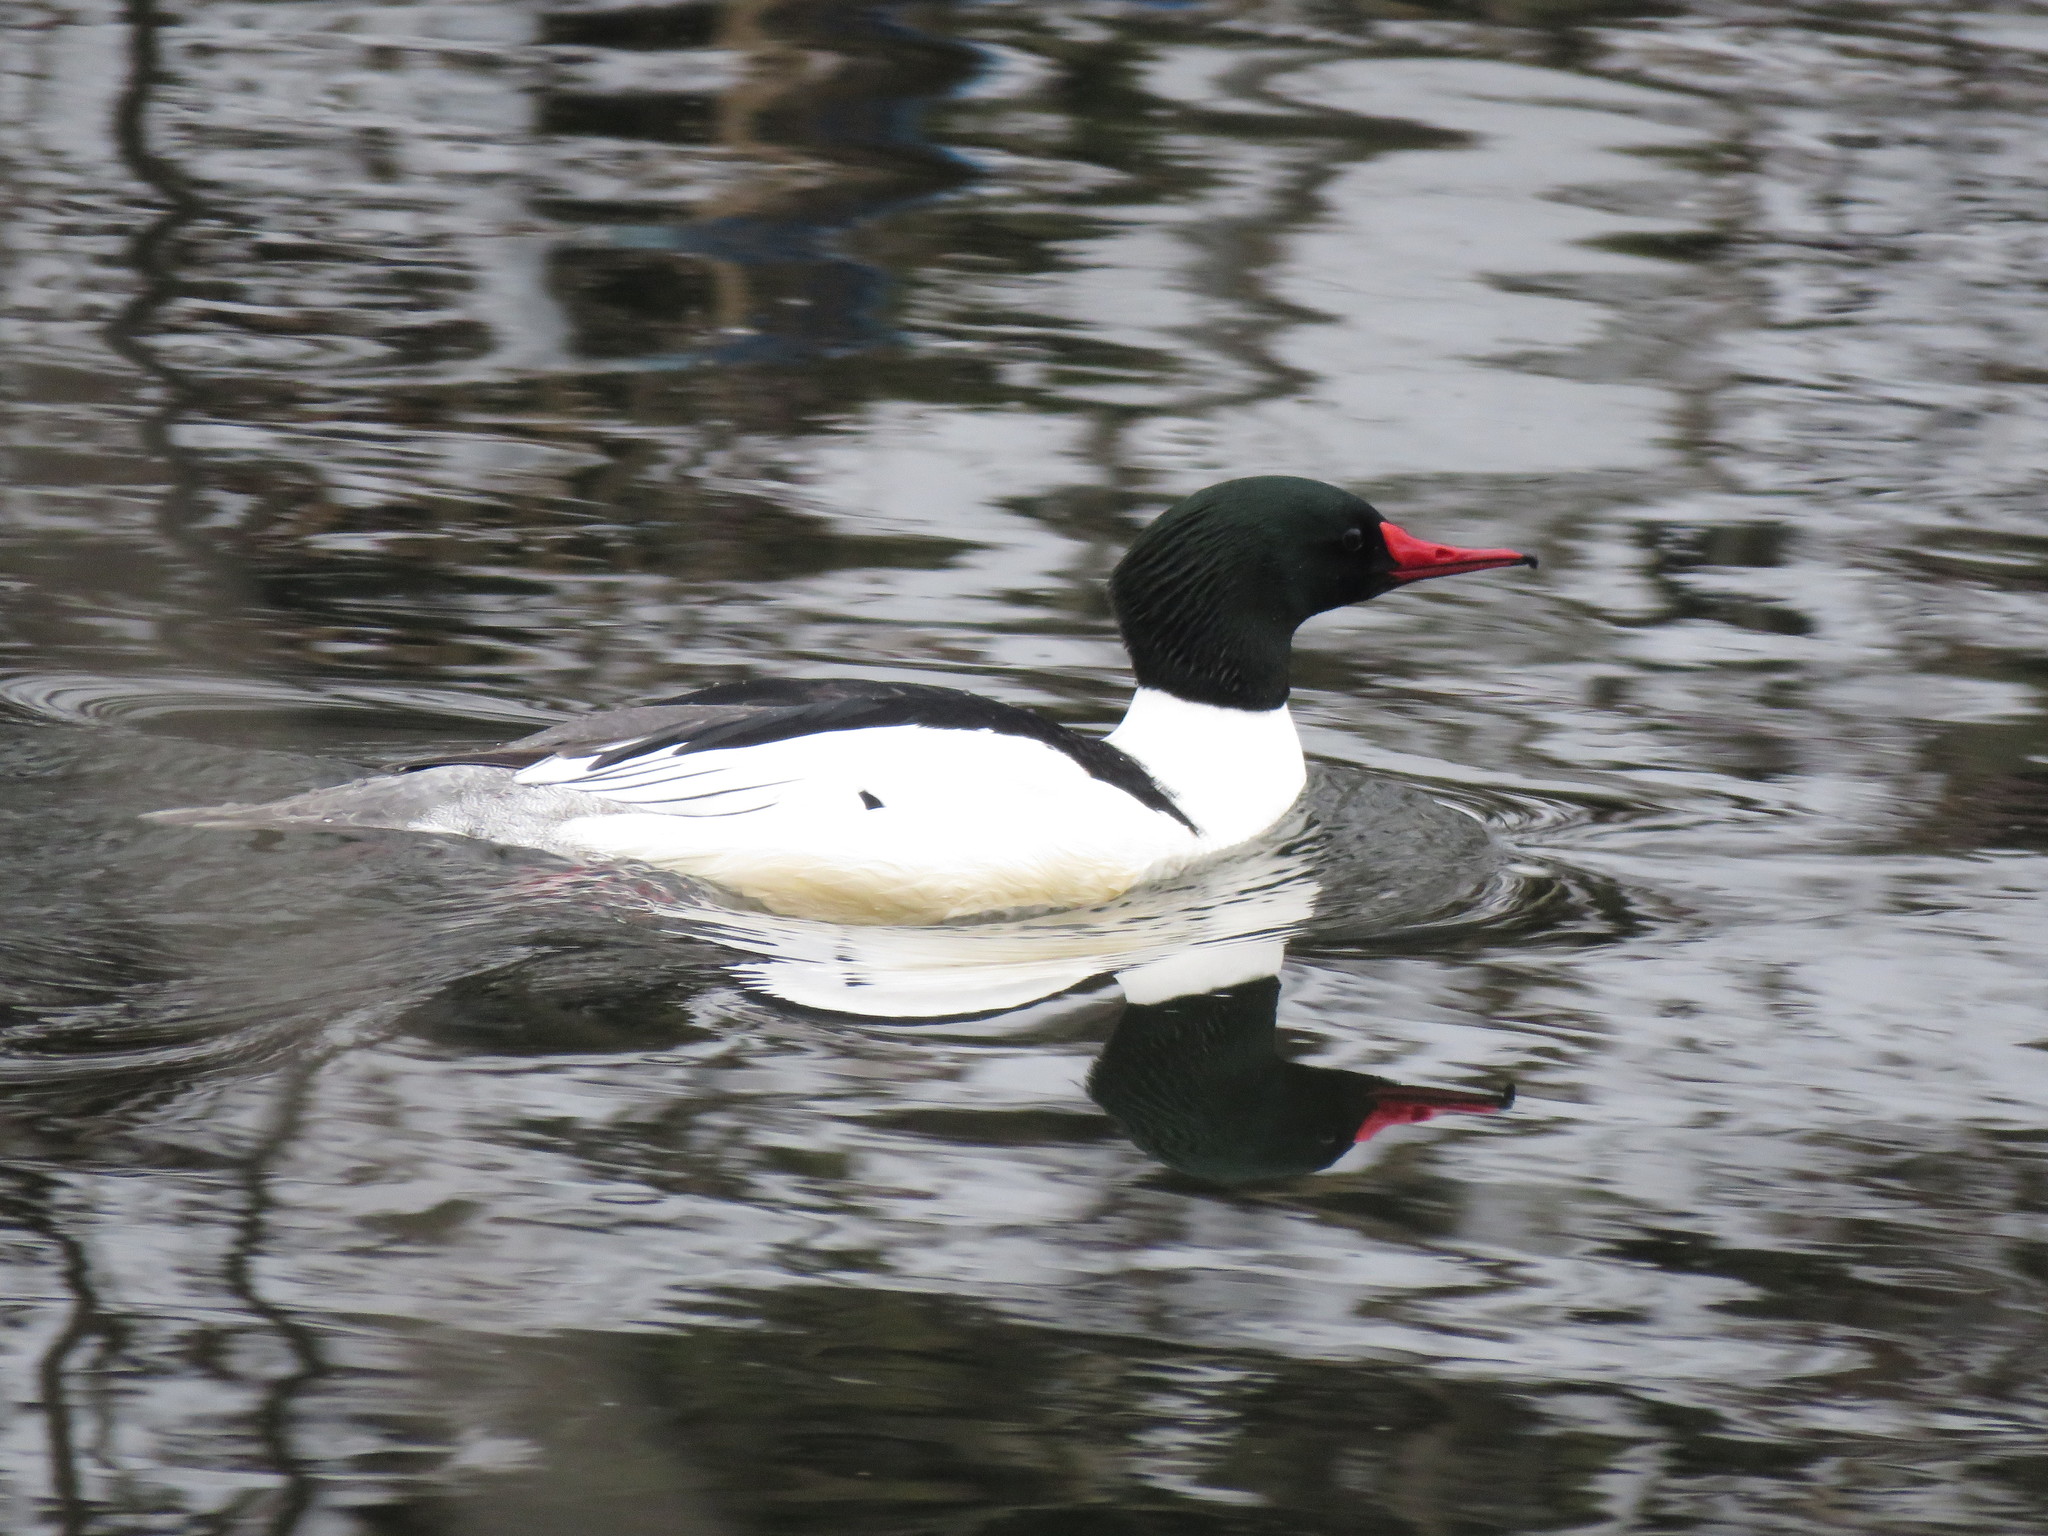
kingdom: Animalia
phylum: Chordata
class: Aves
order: Anseriformes
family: Anatidae
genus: Mergus
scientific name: Mergus merganser
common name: Common merganser
